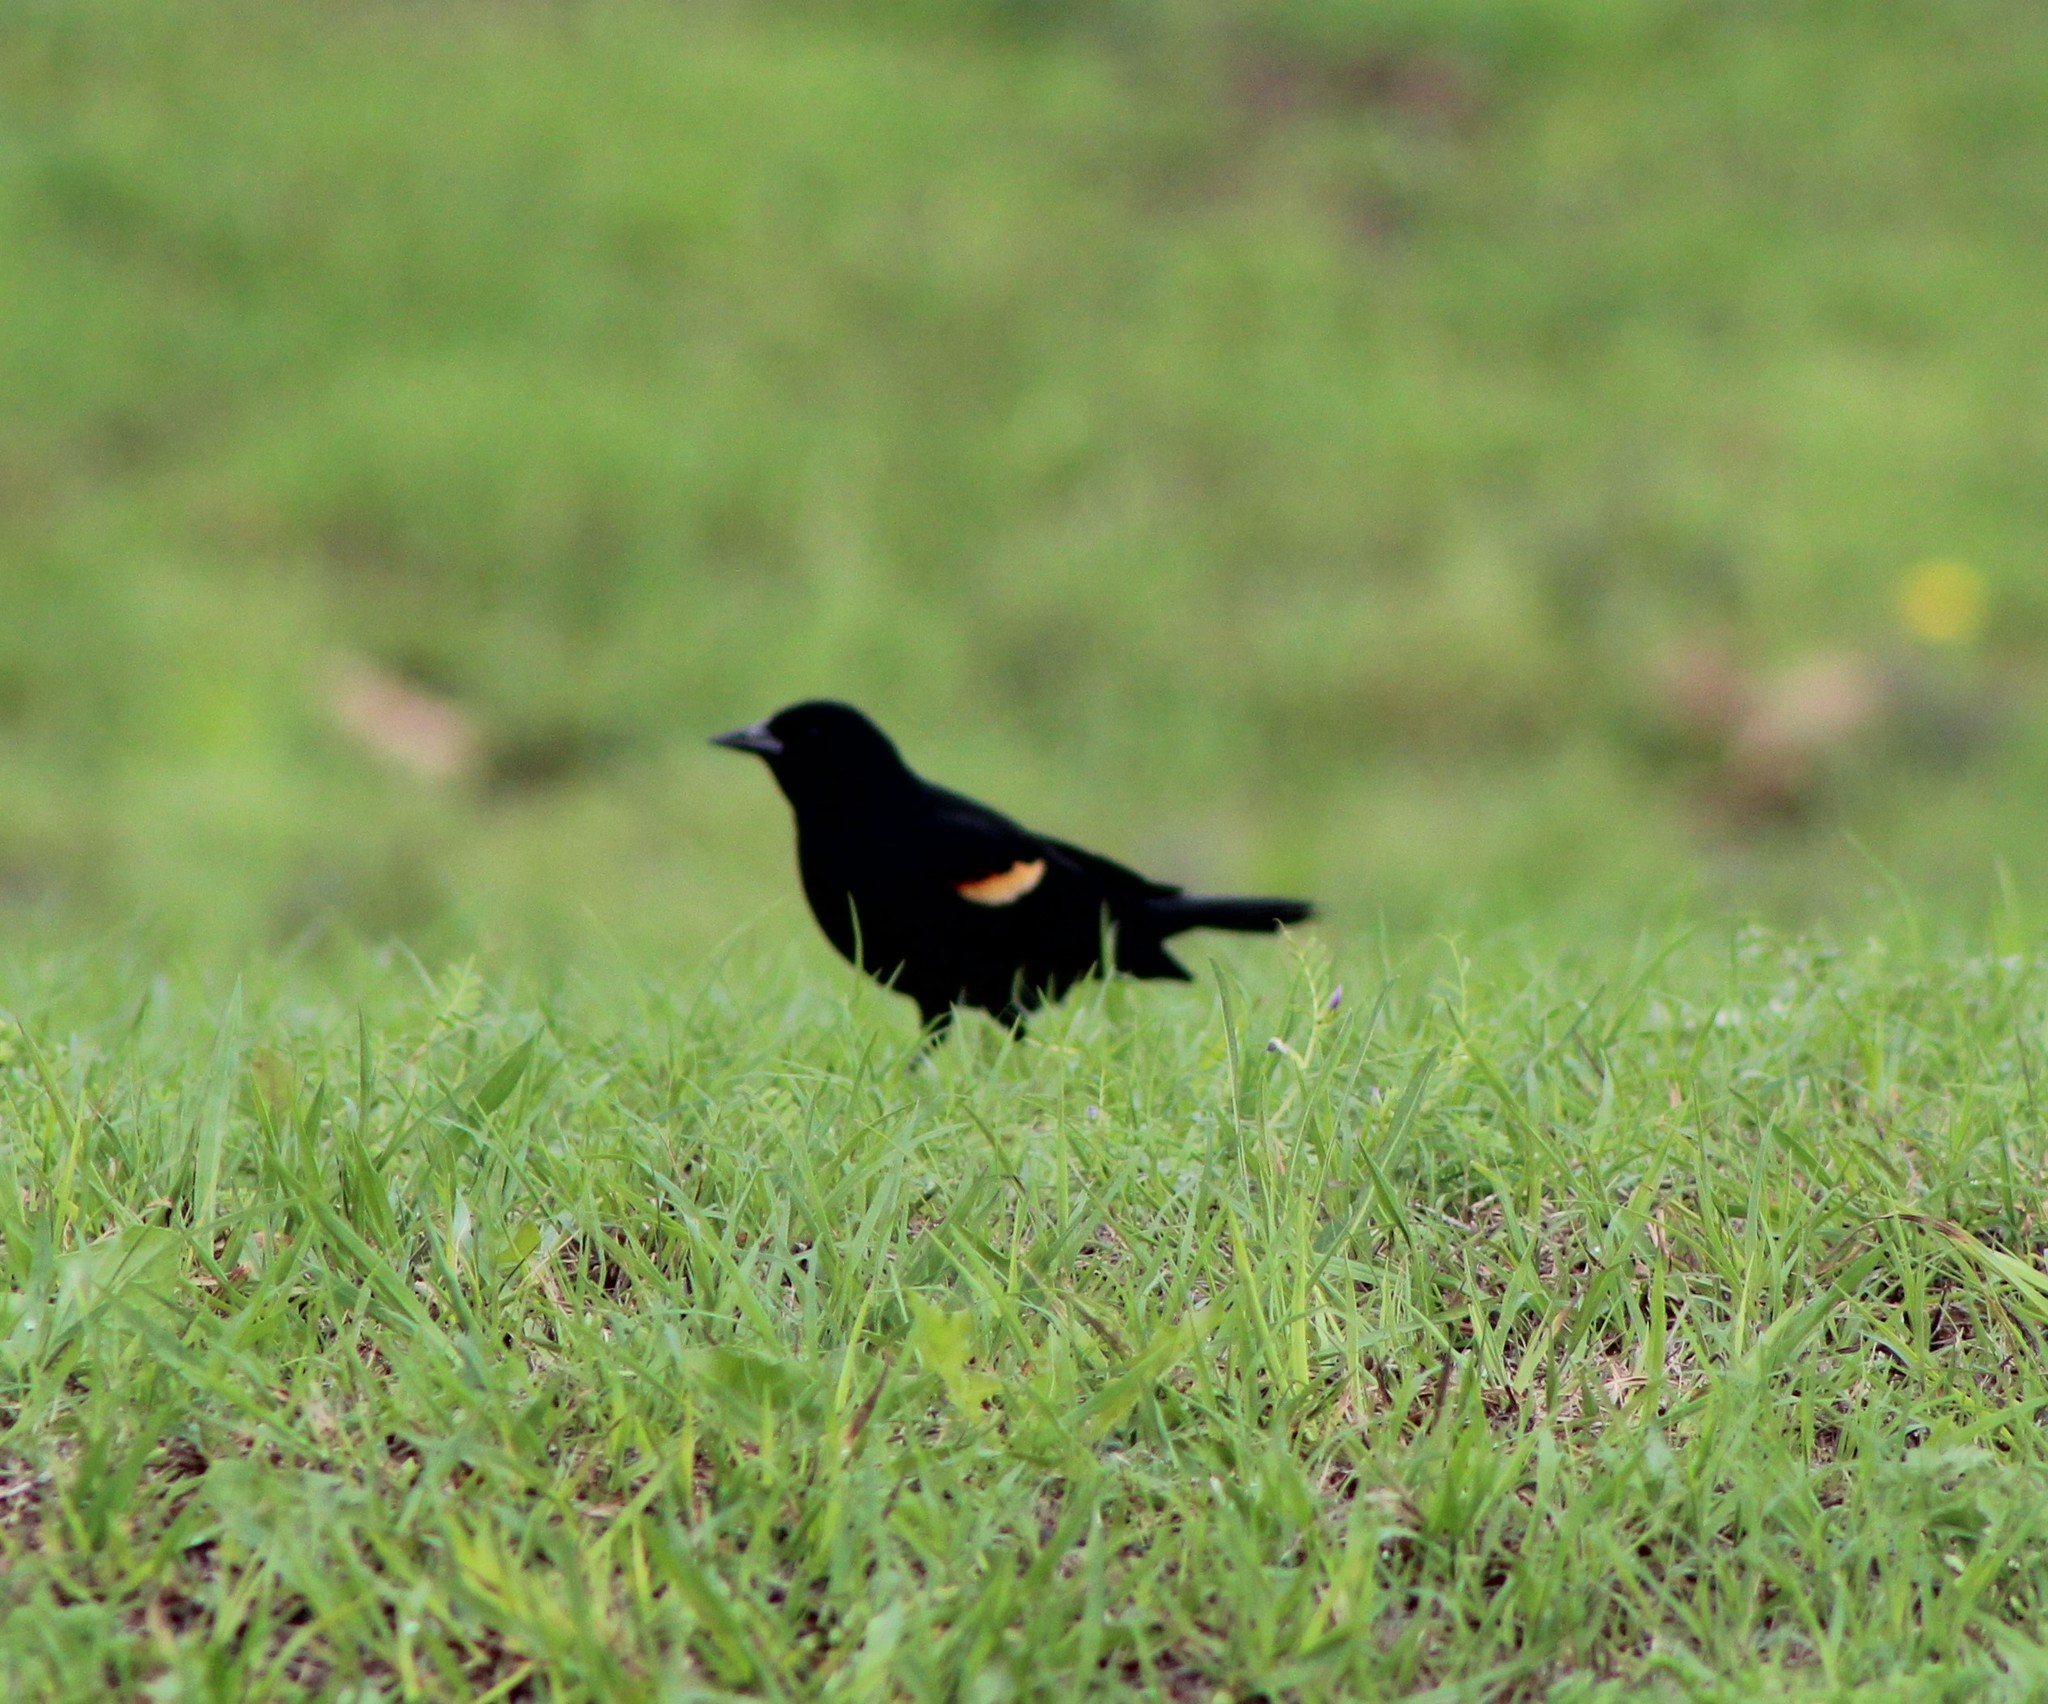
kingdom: Animalia
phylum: Chordata
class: Aves
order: Passeriformes
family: Icteridae
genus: Agelaius
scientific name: Agelaius phoeniceus
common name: Red-winged blackbird
